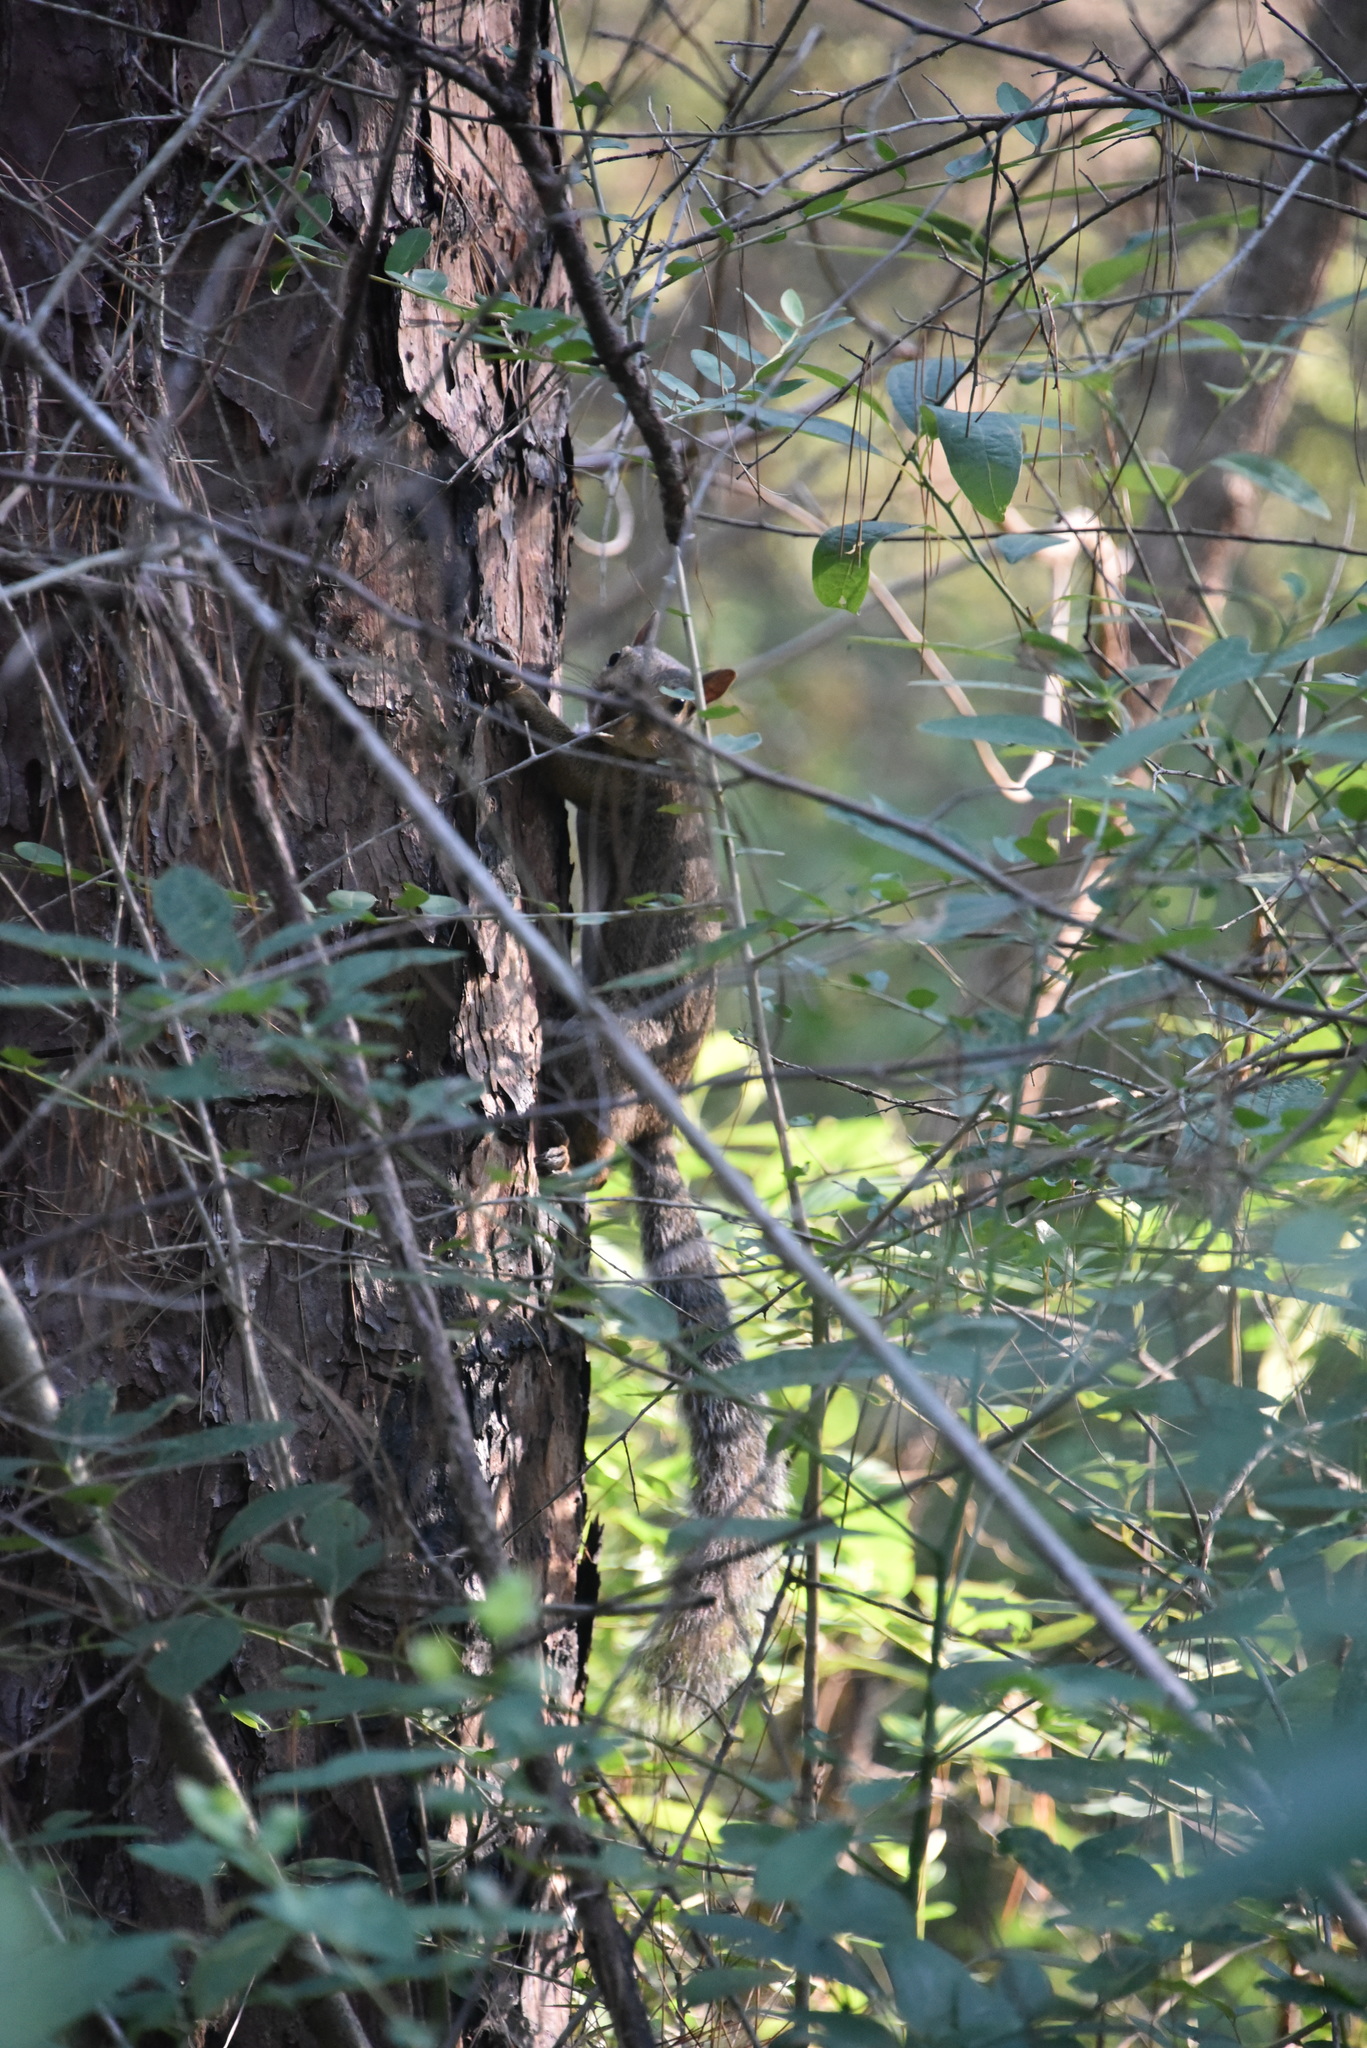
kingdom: Animalia
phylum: Chordata
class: Mammalia
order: Rodentia
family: Sciuridae
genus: Sciurus
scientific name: Sciurus niger
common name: Fox squirrel
